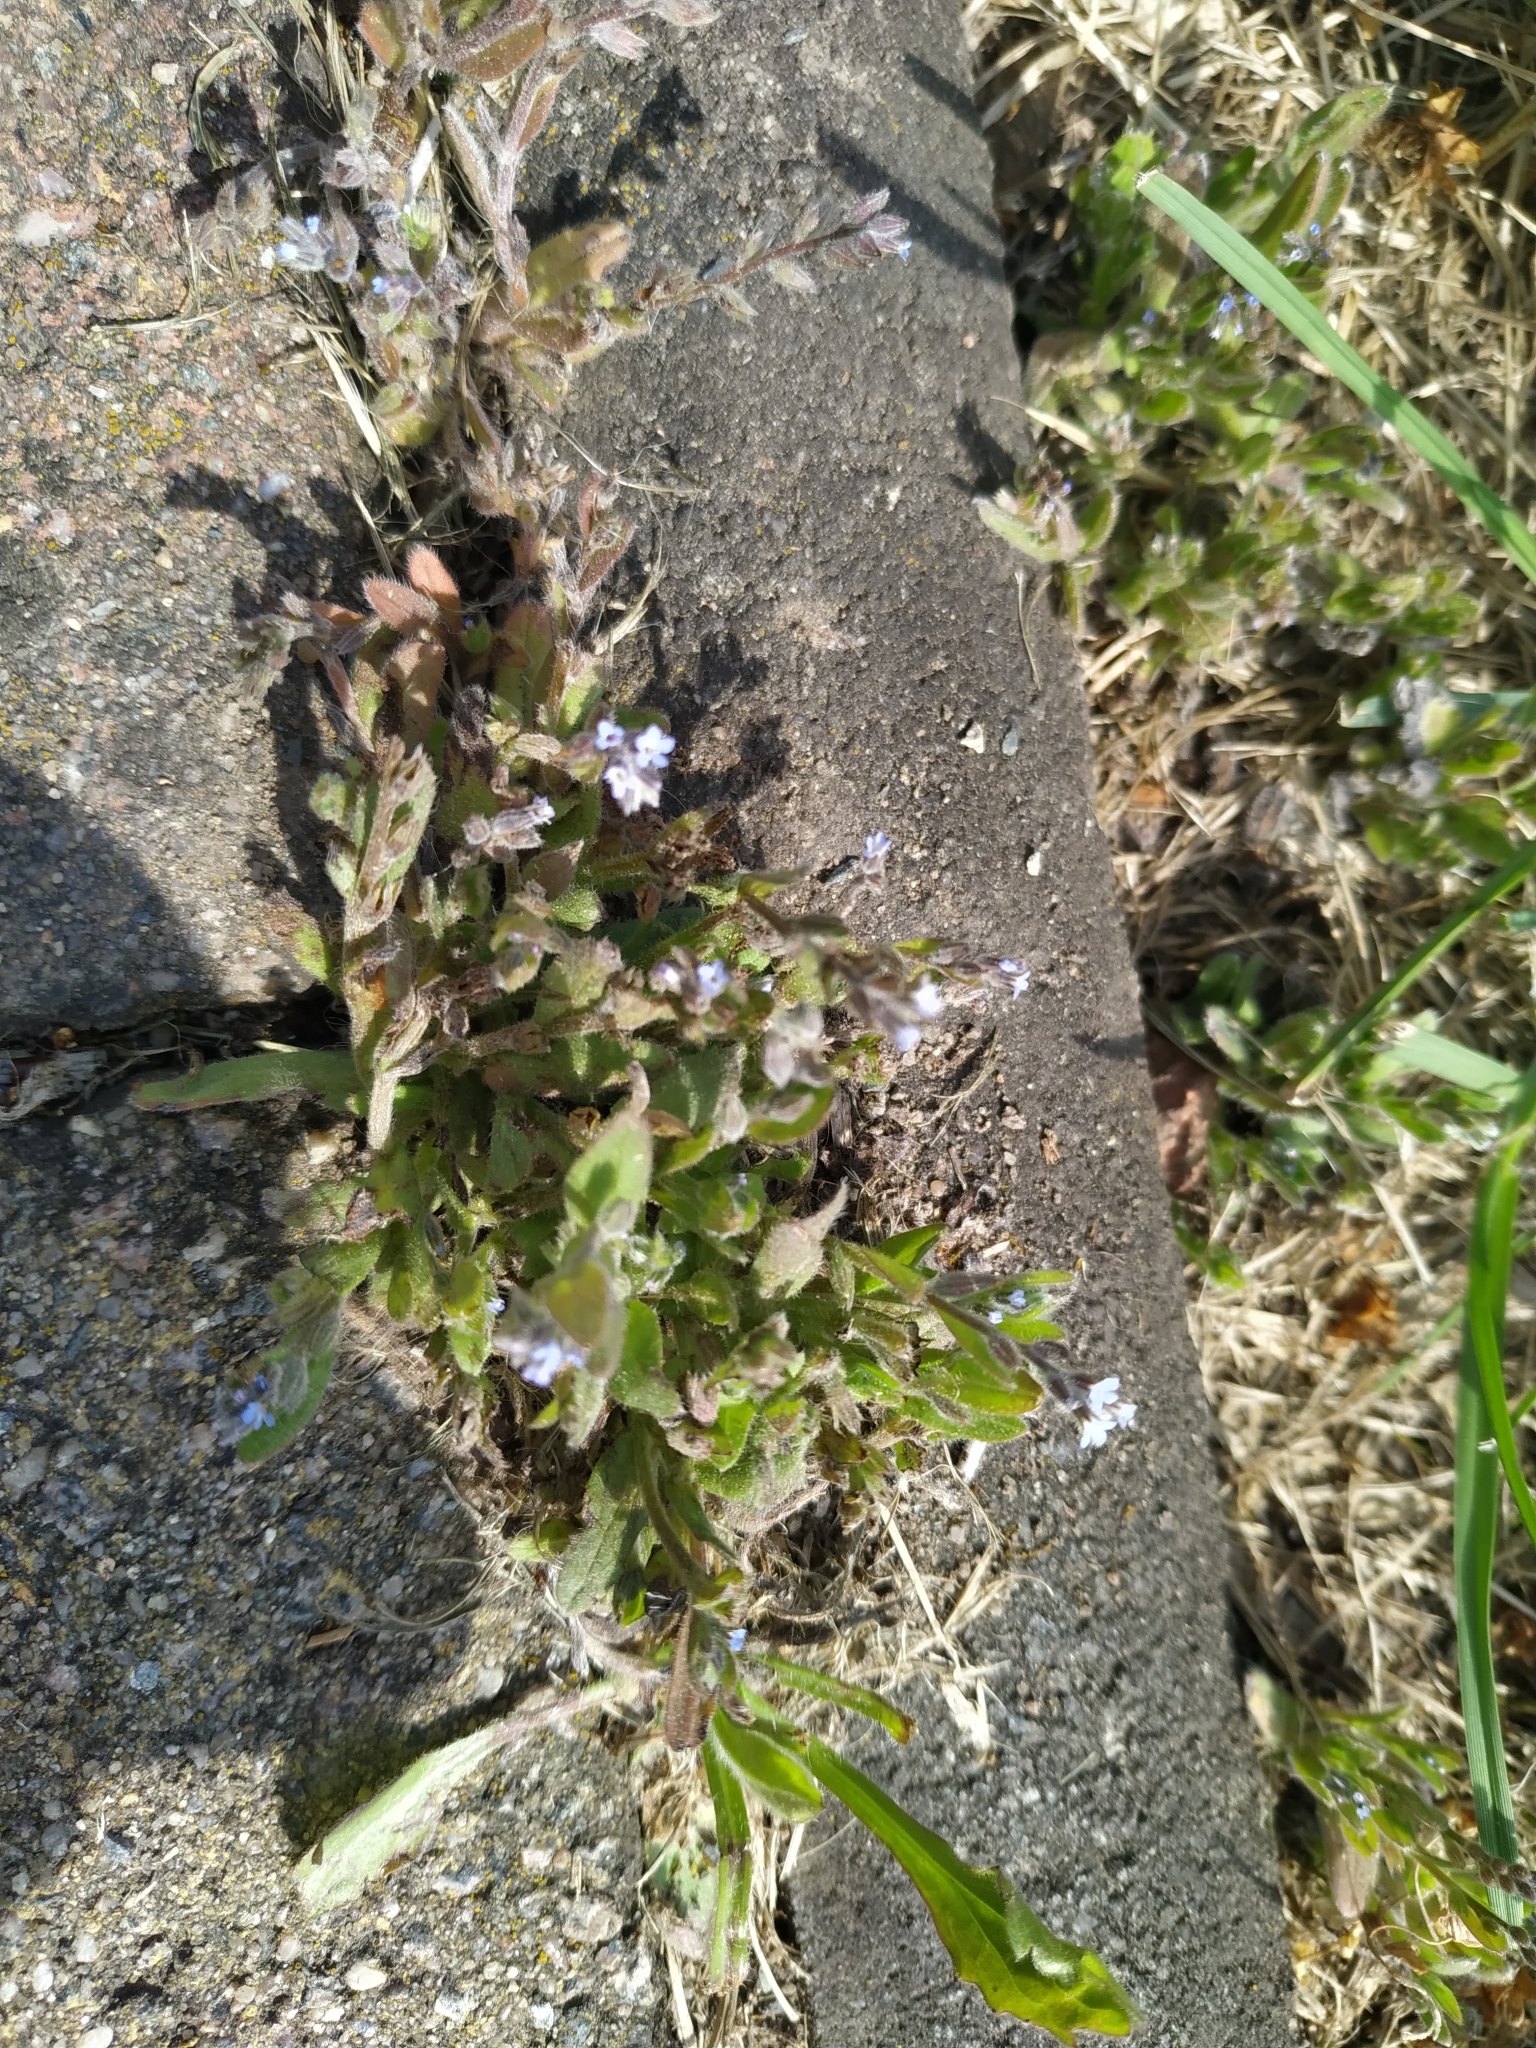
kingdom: Plantae
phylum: Tracheophyta
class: Magnoliopsida
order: Boraginales
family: Boraginaceae
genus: Myosotis
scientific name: Myosotis stricta
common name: Strict forget-me-not
